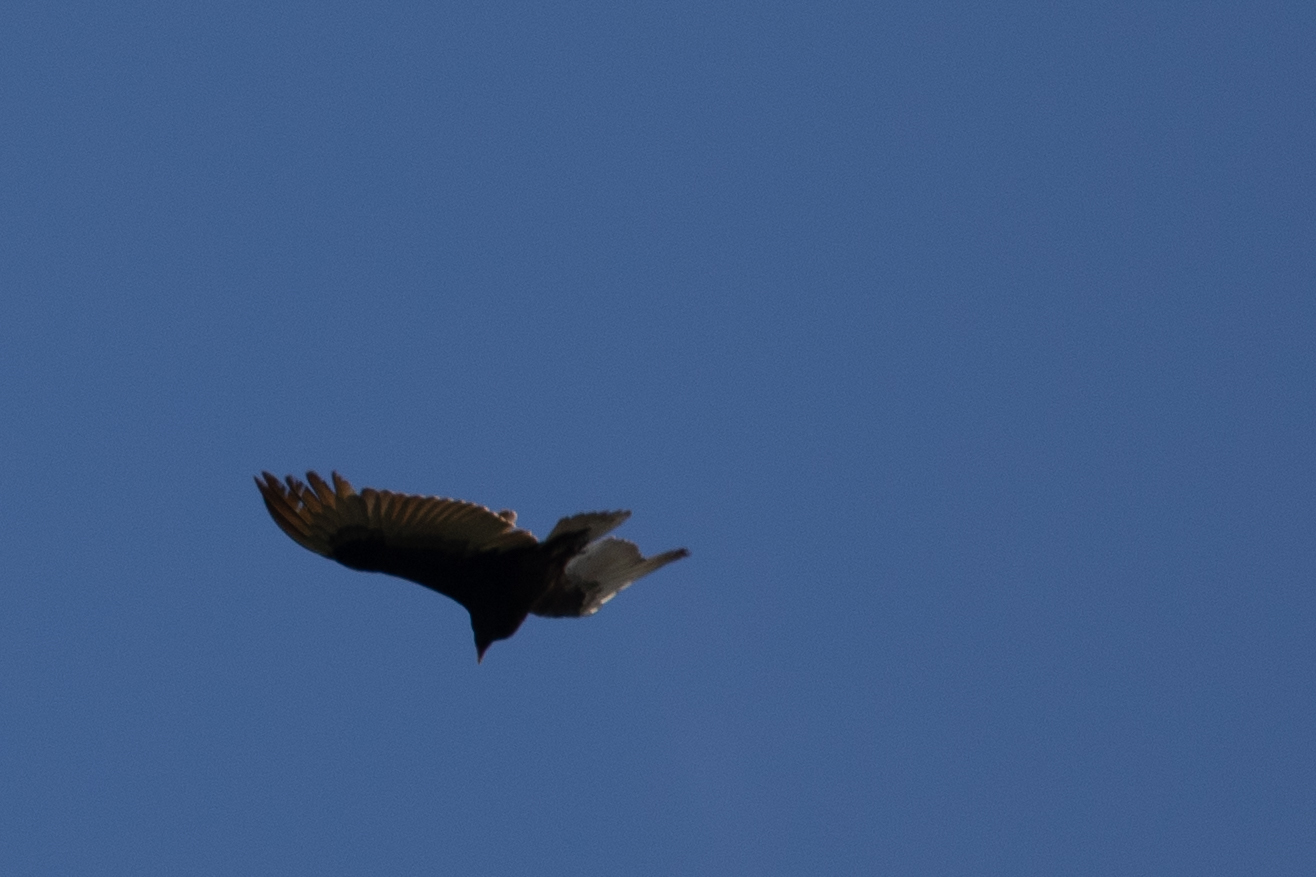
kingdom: Animalia
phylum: Chordata
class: Aves
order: Accipitriformes
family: Cathartidae
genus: Cathartes
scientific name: Cathartes aura
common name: Turkey vulture
